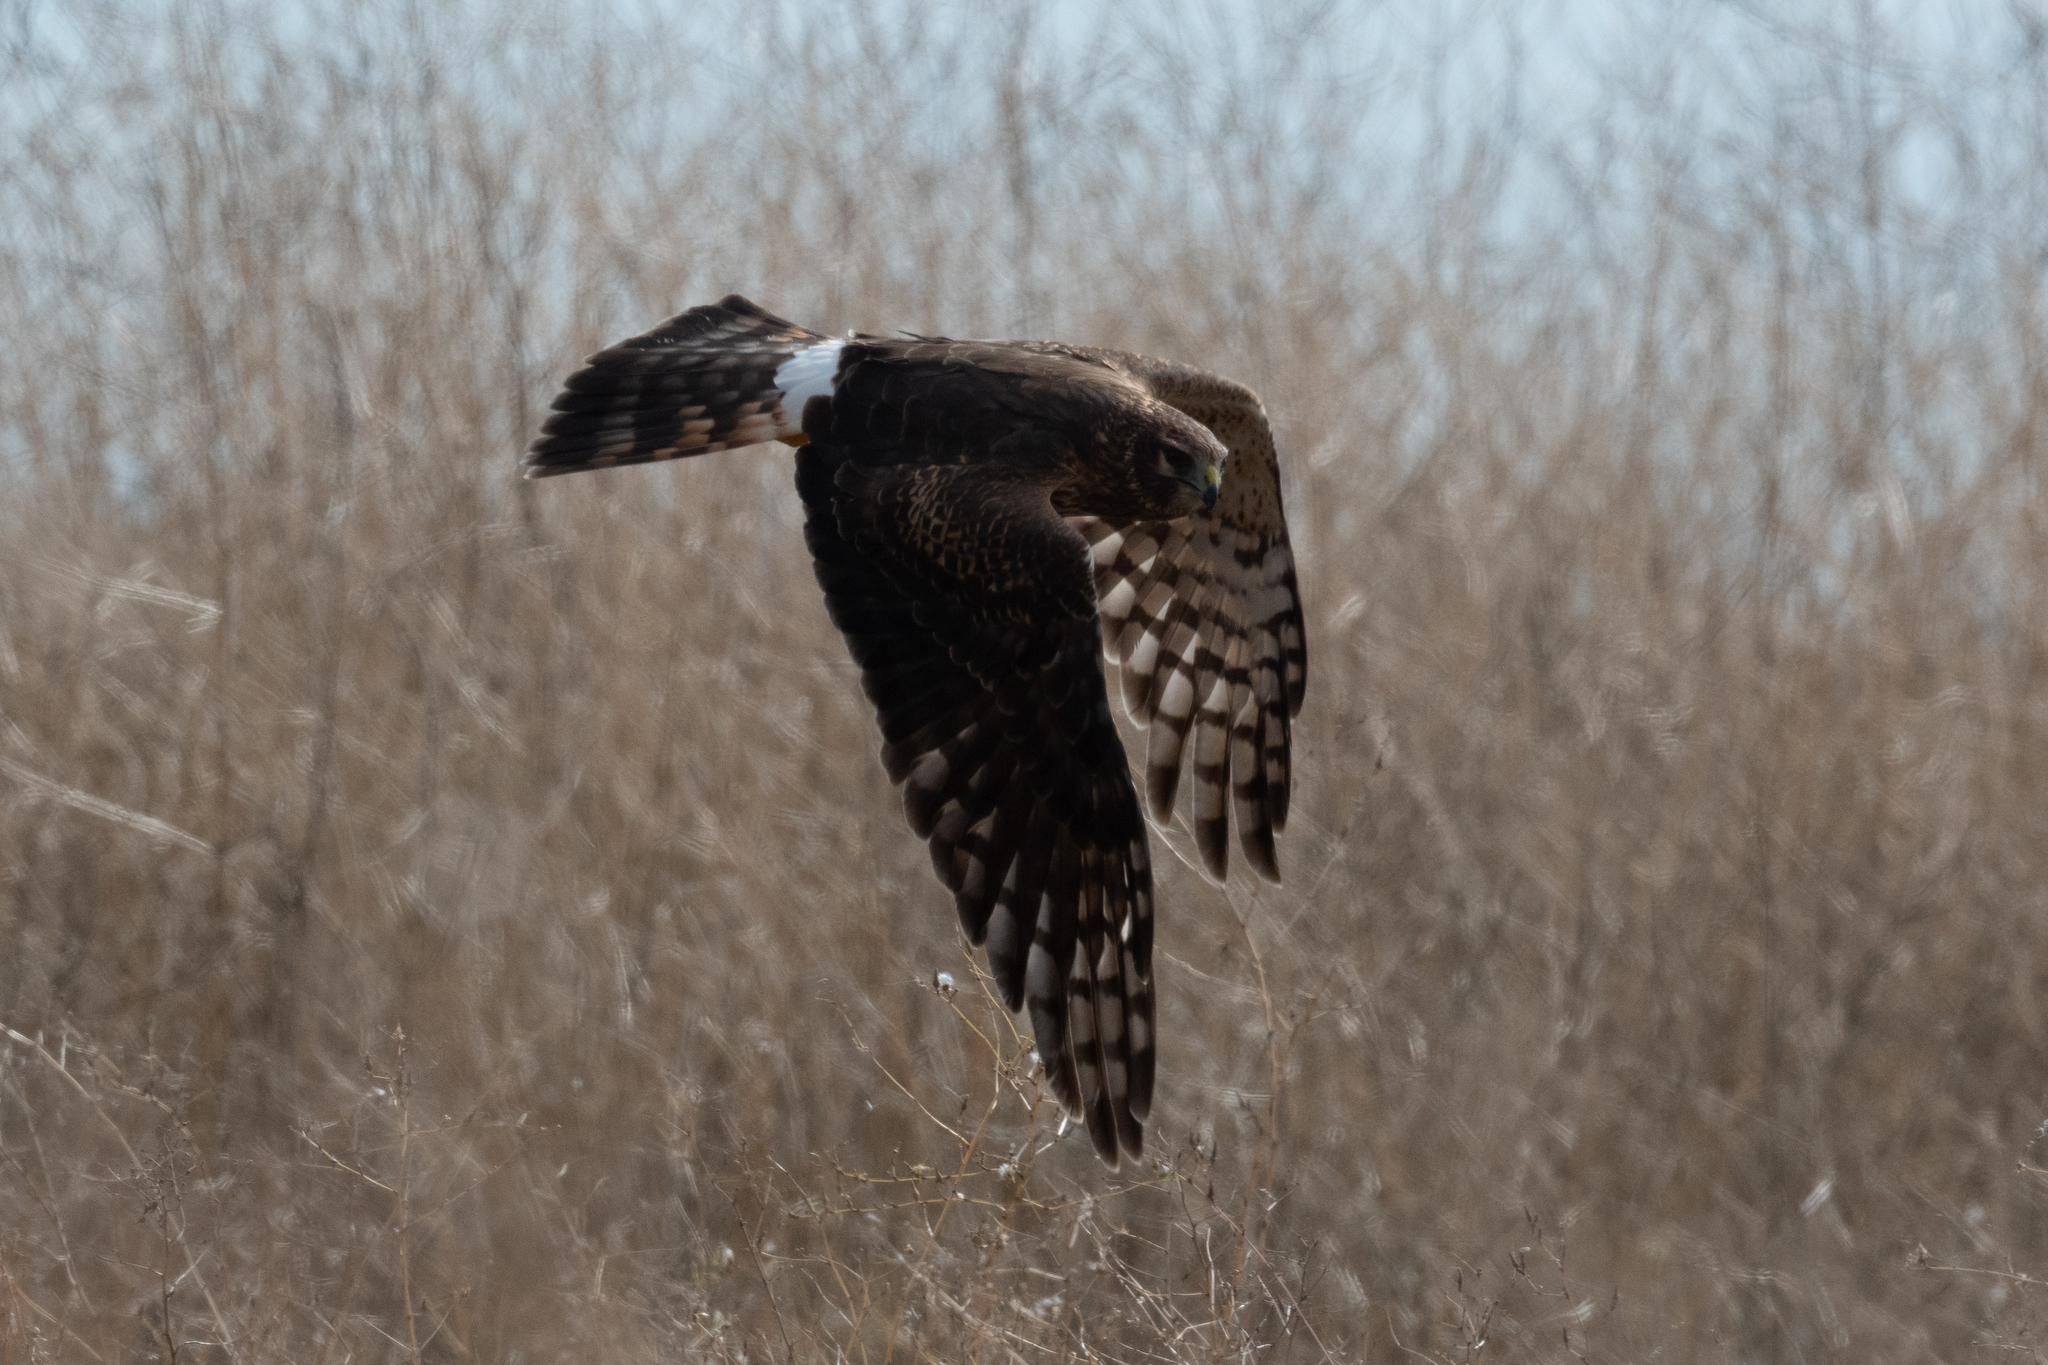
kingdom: Animalia
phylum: Chordata
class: Aves
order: Accipitriformes
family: Accipitridae
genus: Circus
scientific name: Circus cyaneus
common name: Hen harrier
